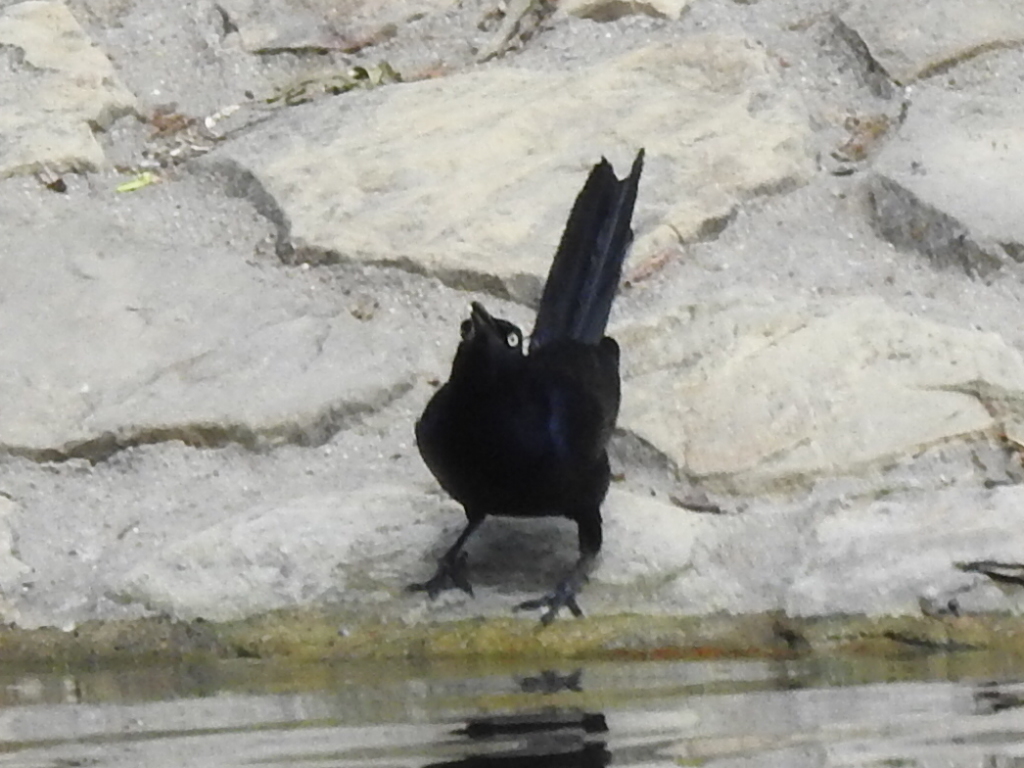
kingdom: Animalia
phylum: Chordata
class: Aves
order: Passeriformes
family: Icteridae
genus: Quiscalus
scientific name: Quiscalus mexicanus
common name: Great-tailed grackle
